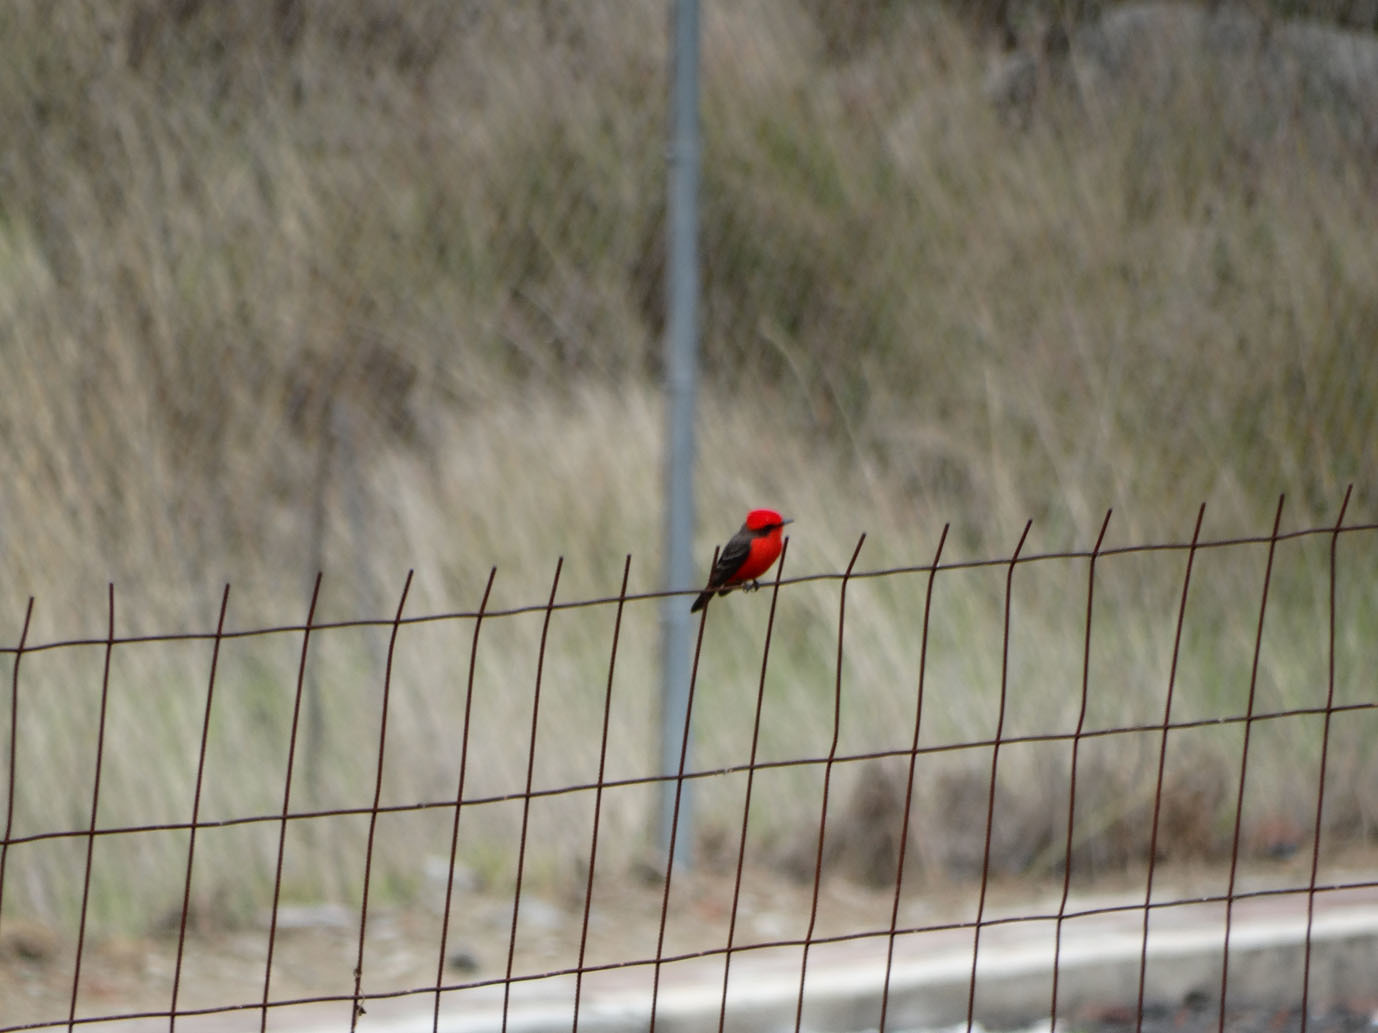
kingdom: Animalia
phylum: Chordata
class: Aves
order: Passeriformes
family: Tyrannidae
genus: Pyrocephalus
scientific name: Pyrocephalus rubinus
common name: Vermilion flycatcher
